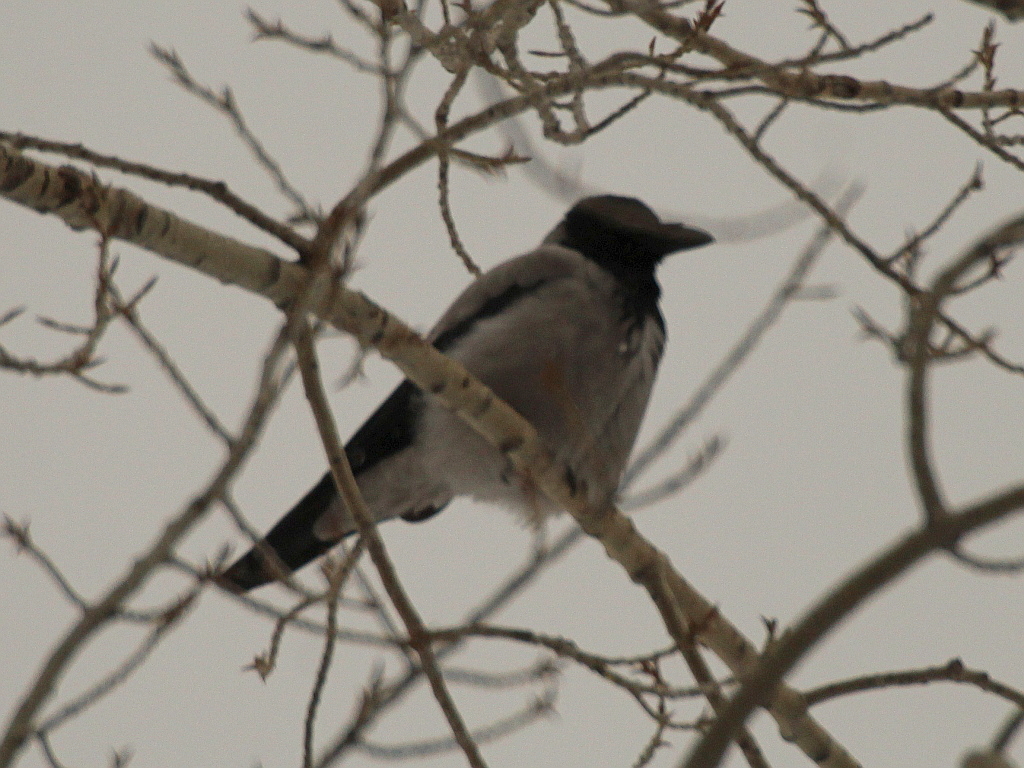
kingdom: Animalia
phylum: Chordata
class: Aves
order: Passeriformes
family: Corvidae
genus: Corvus
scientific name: Corvus cornix
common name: Hooded crow
